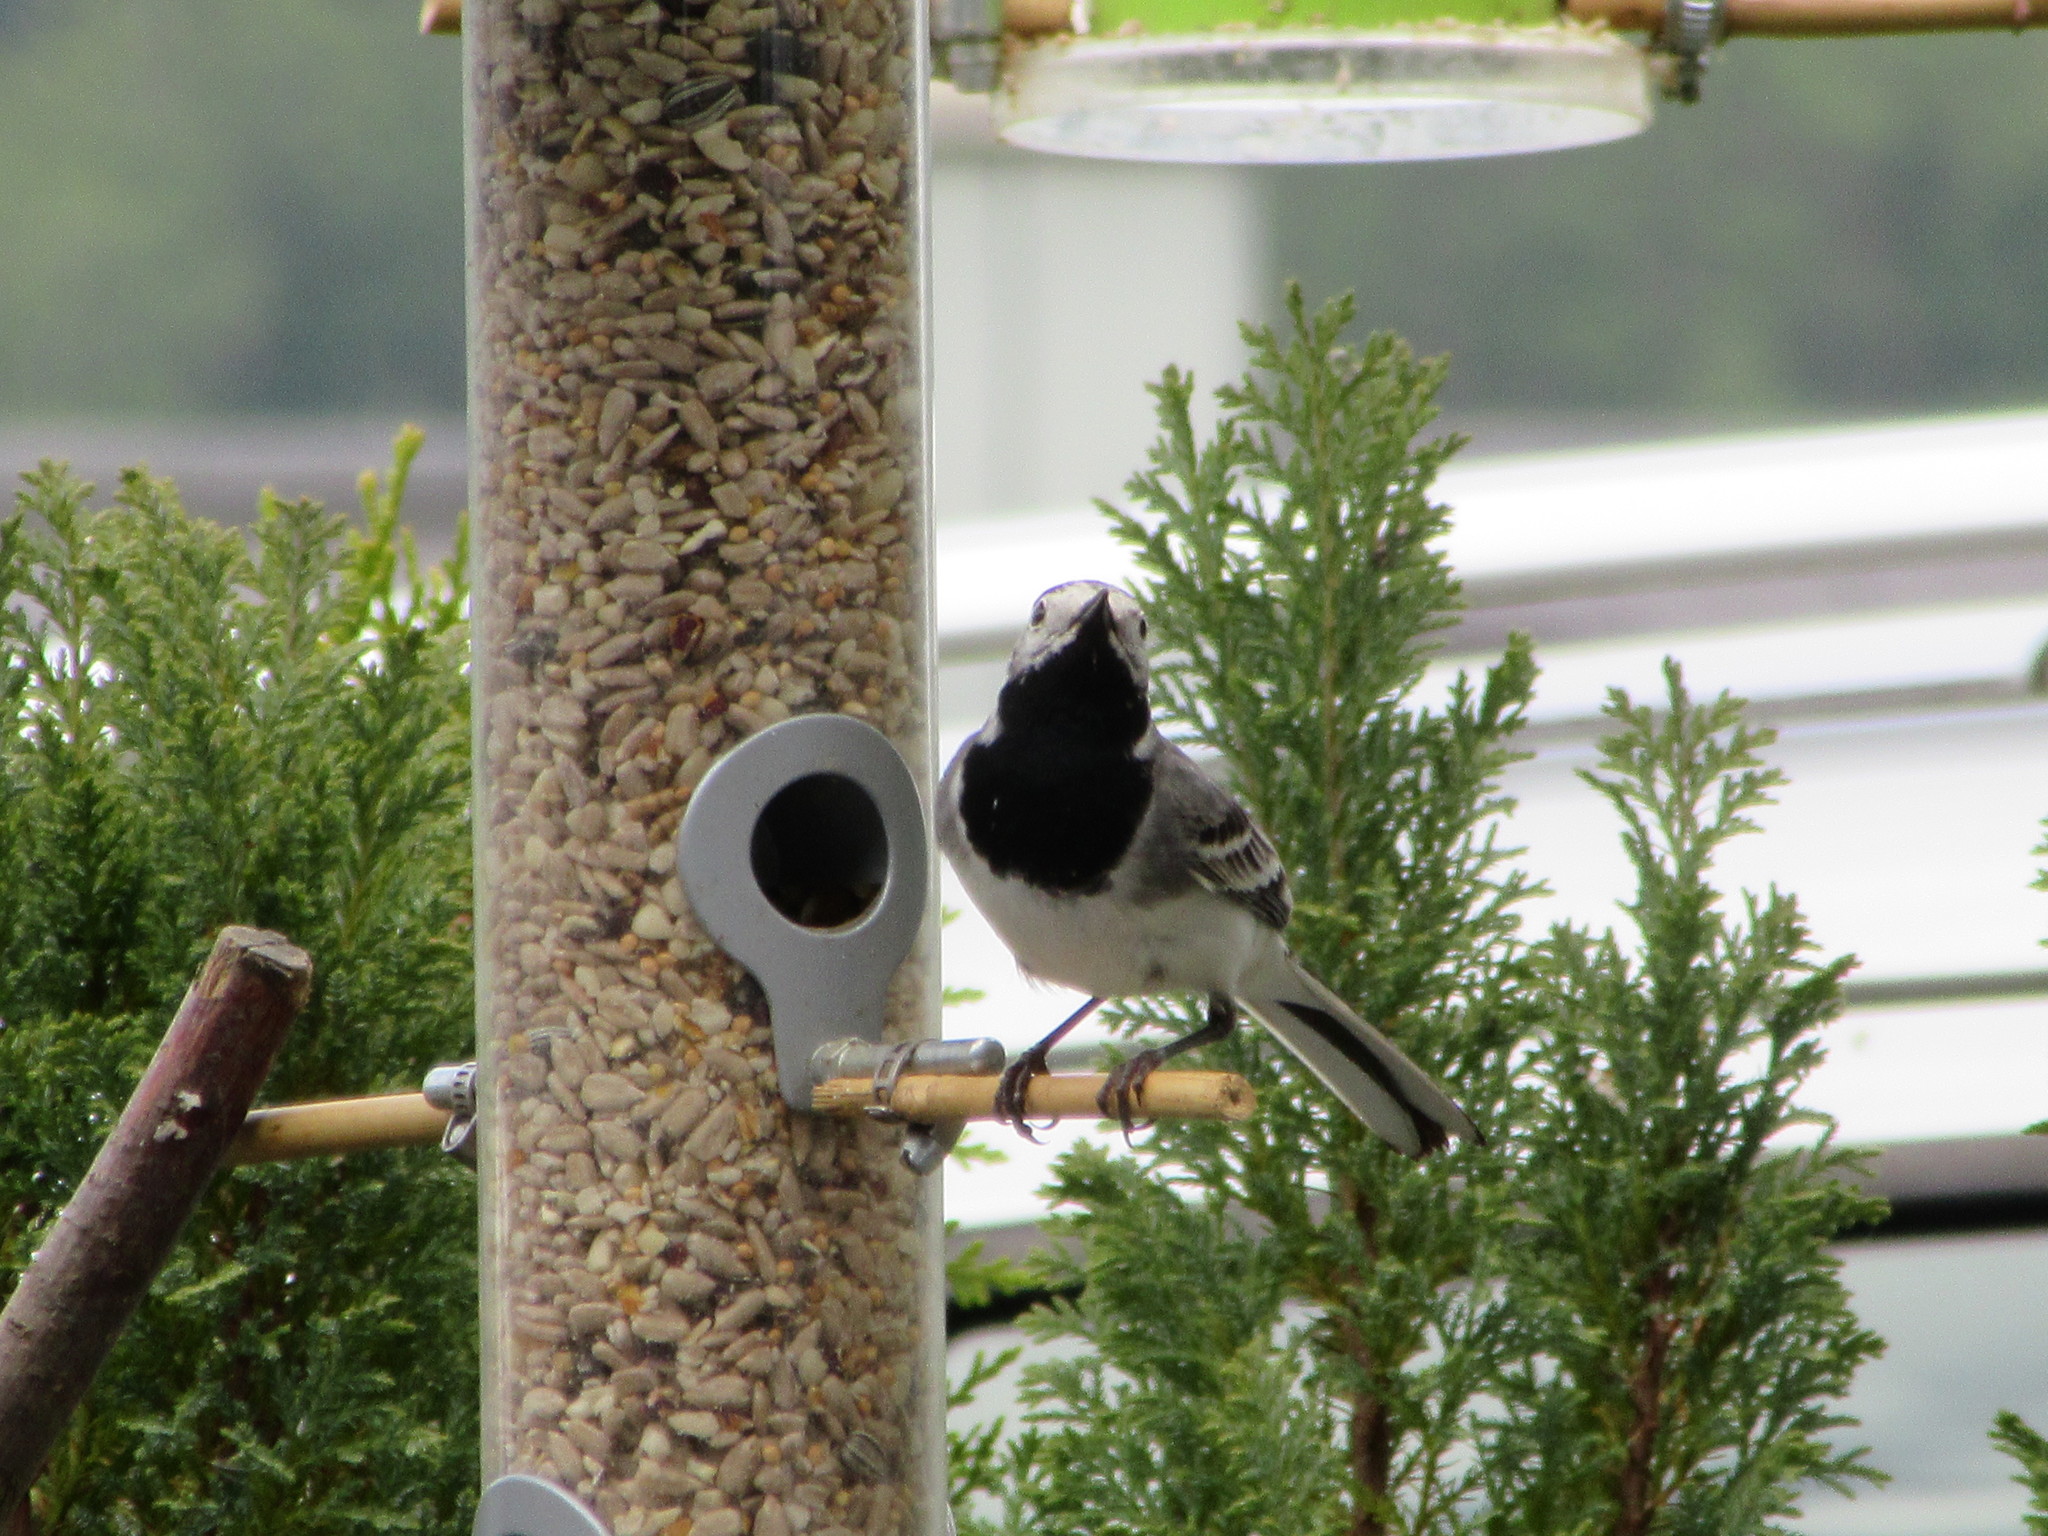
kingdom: Animalia
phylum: Chordata
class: Aves
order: Passeriformes
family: Motacillidae
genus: Motacilla
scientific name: Motacilla alba
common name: White wagtail
